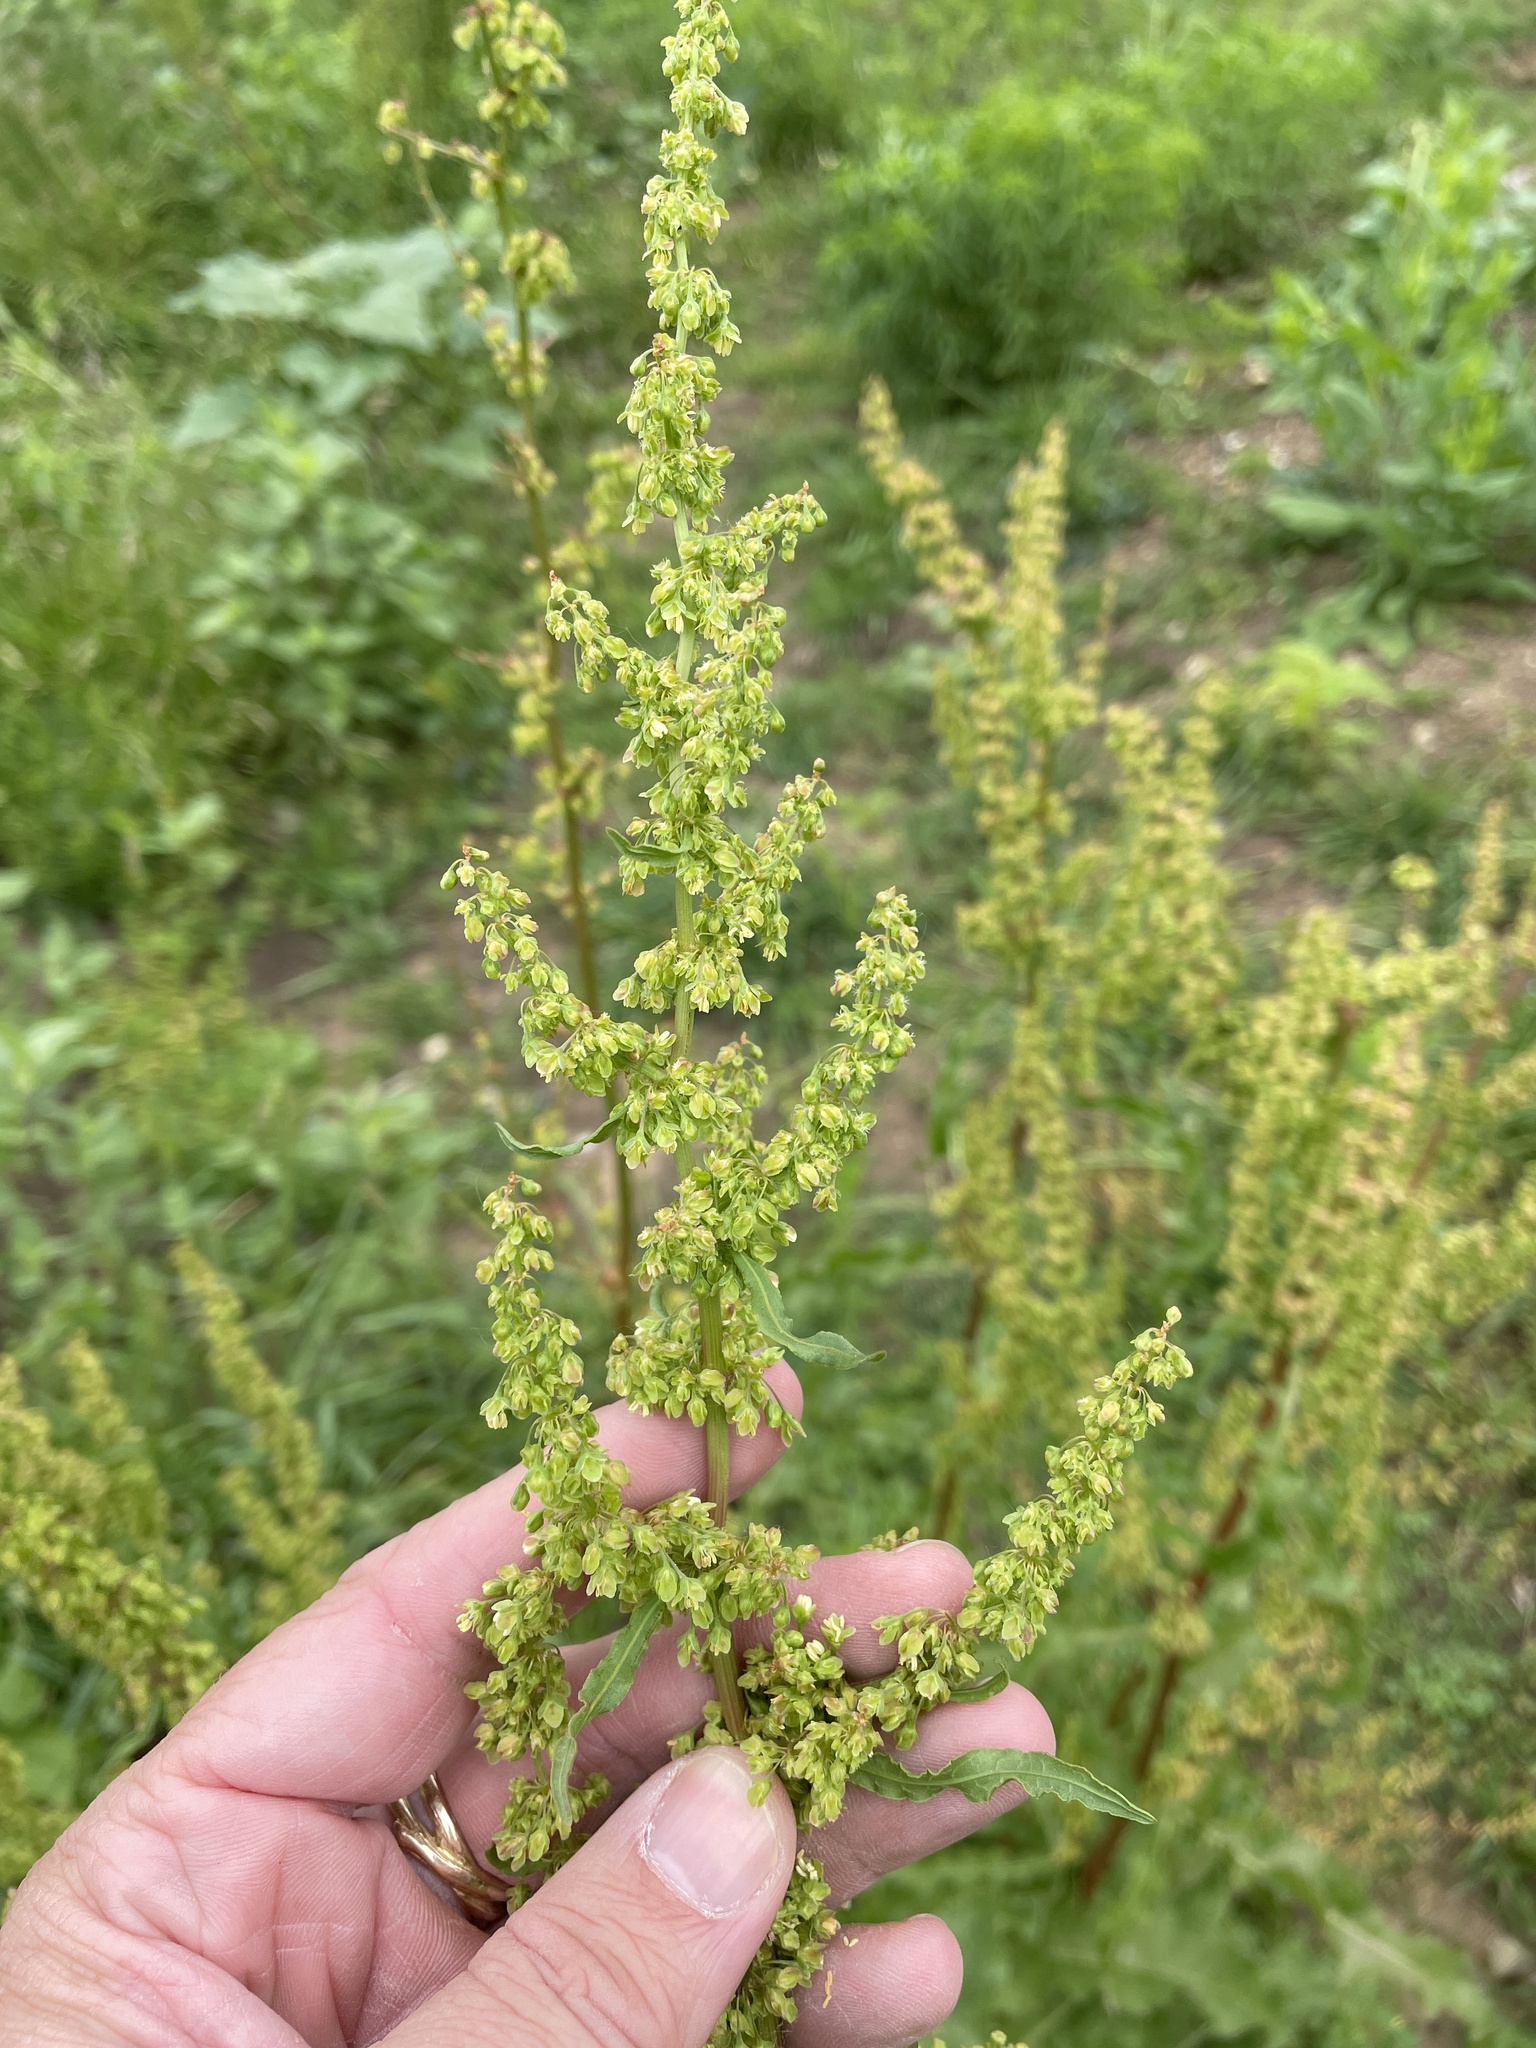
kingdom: Plantae
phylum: Tracheophyta
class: Magnoliopsida
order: Caryophyllales
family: Polygonaceae
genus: Rumex
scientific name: Rumex crispus
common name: Curled dock
